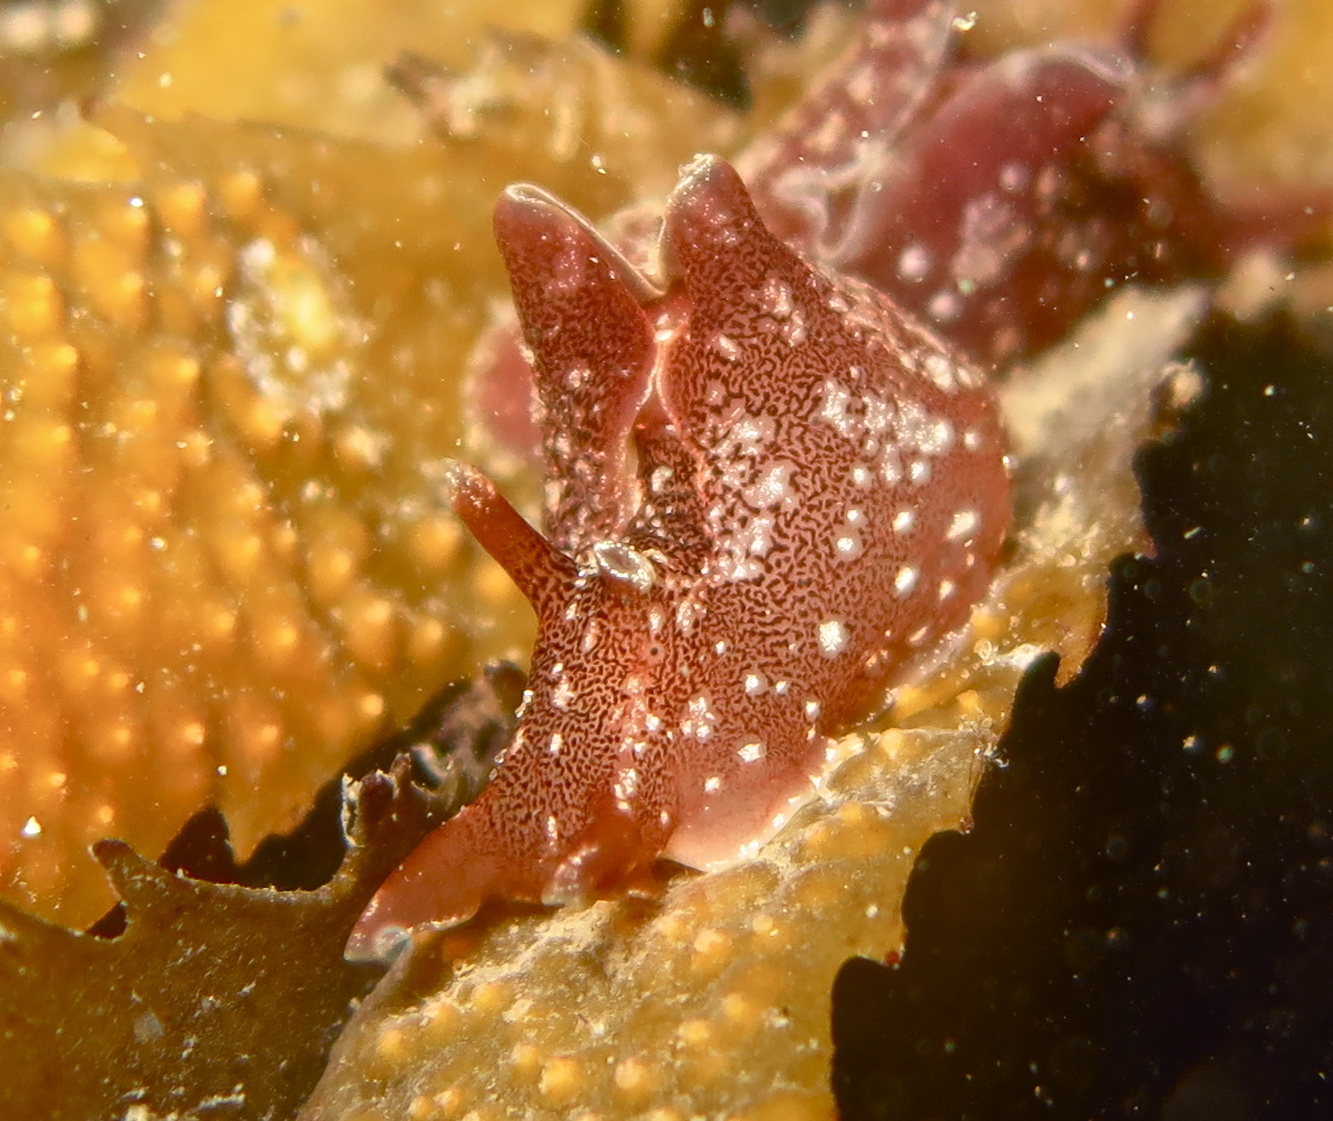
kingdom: Animalia
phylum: Mollusca
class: Gastropoda
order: Aplysiida
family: Aplysiidae
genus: Aplysia
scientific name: Aplysia punctata
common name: Common sea hare
